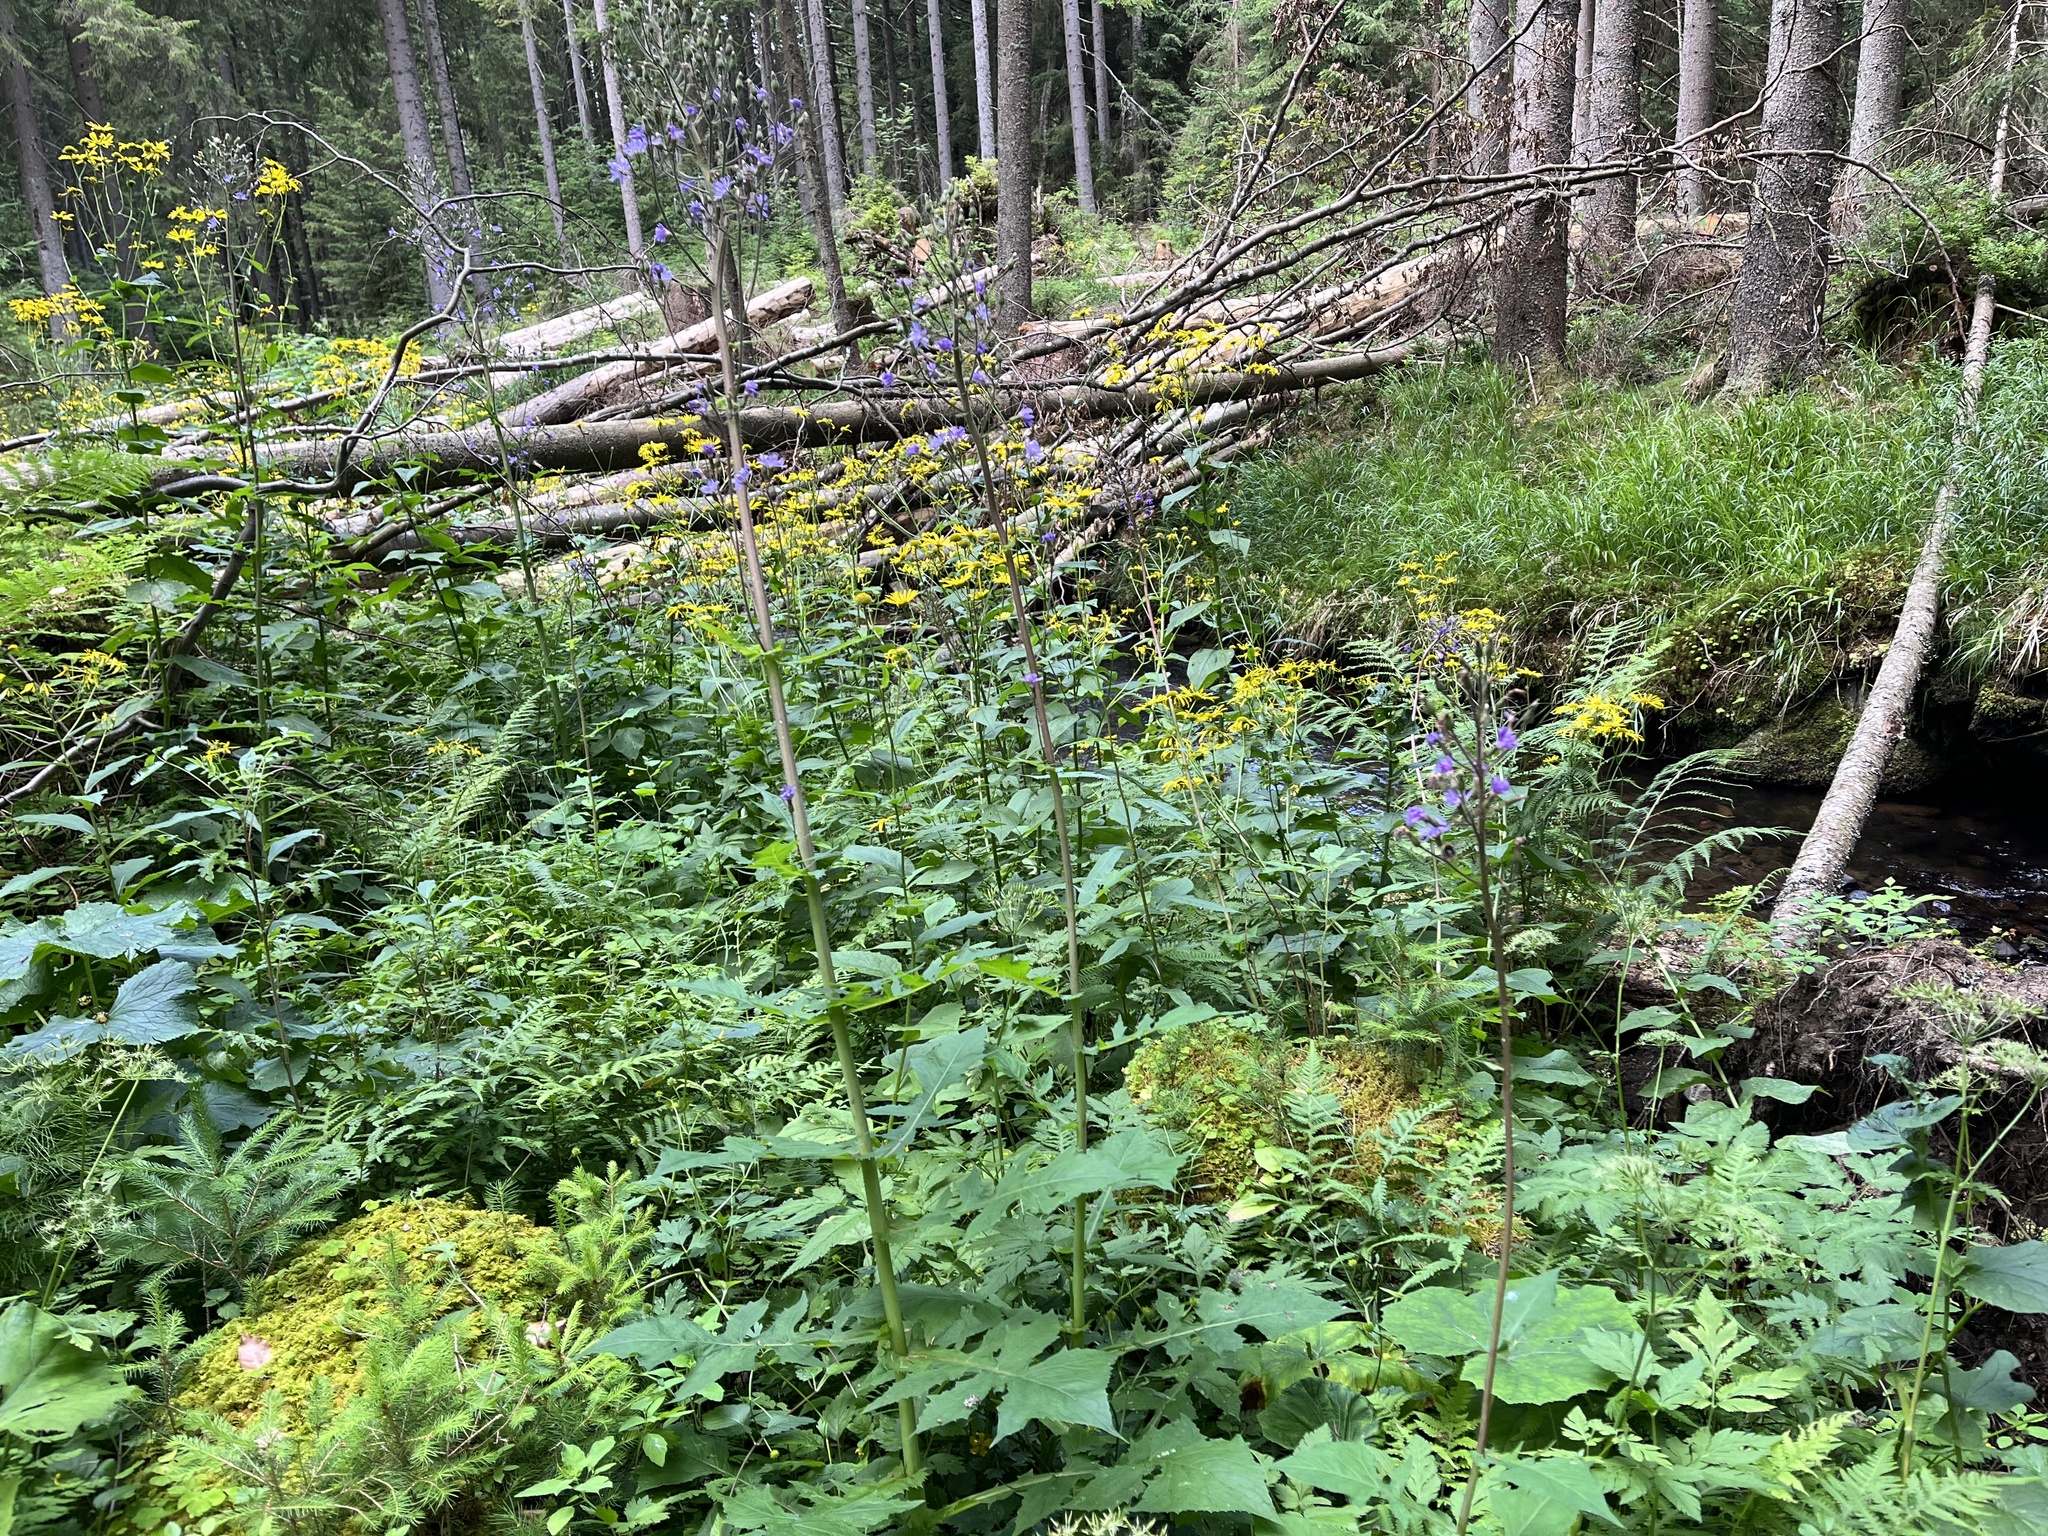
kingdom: Plantae
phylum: Tracheophyta
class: Magnoliopsida
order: Asterales
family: Asteraceae
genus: Cicerbita
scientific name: Cicerbita alpina
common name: Alpine blue-sow-thistle
